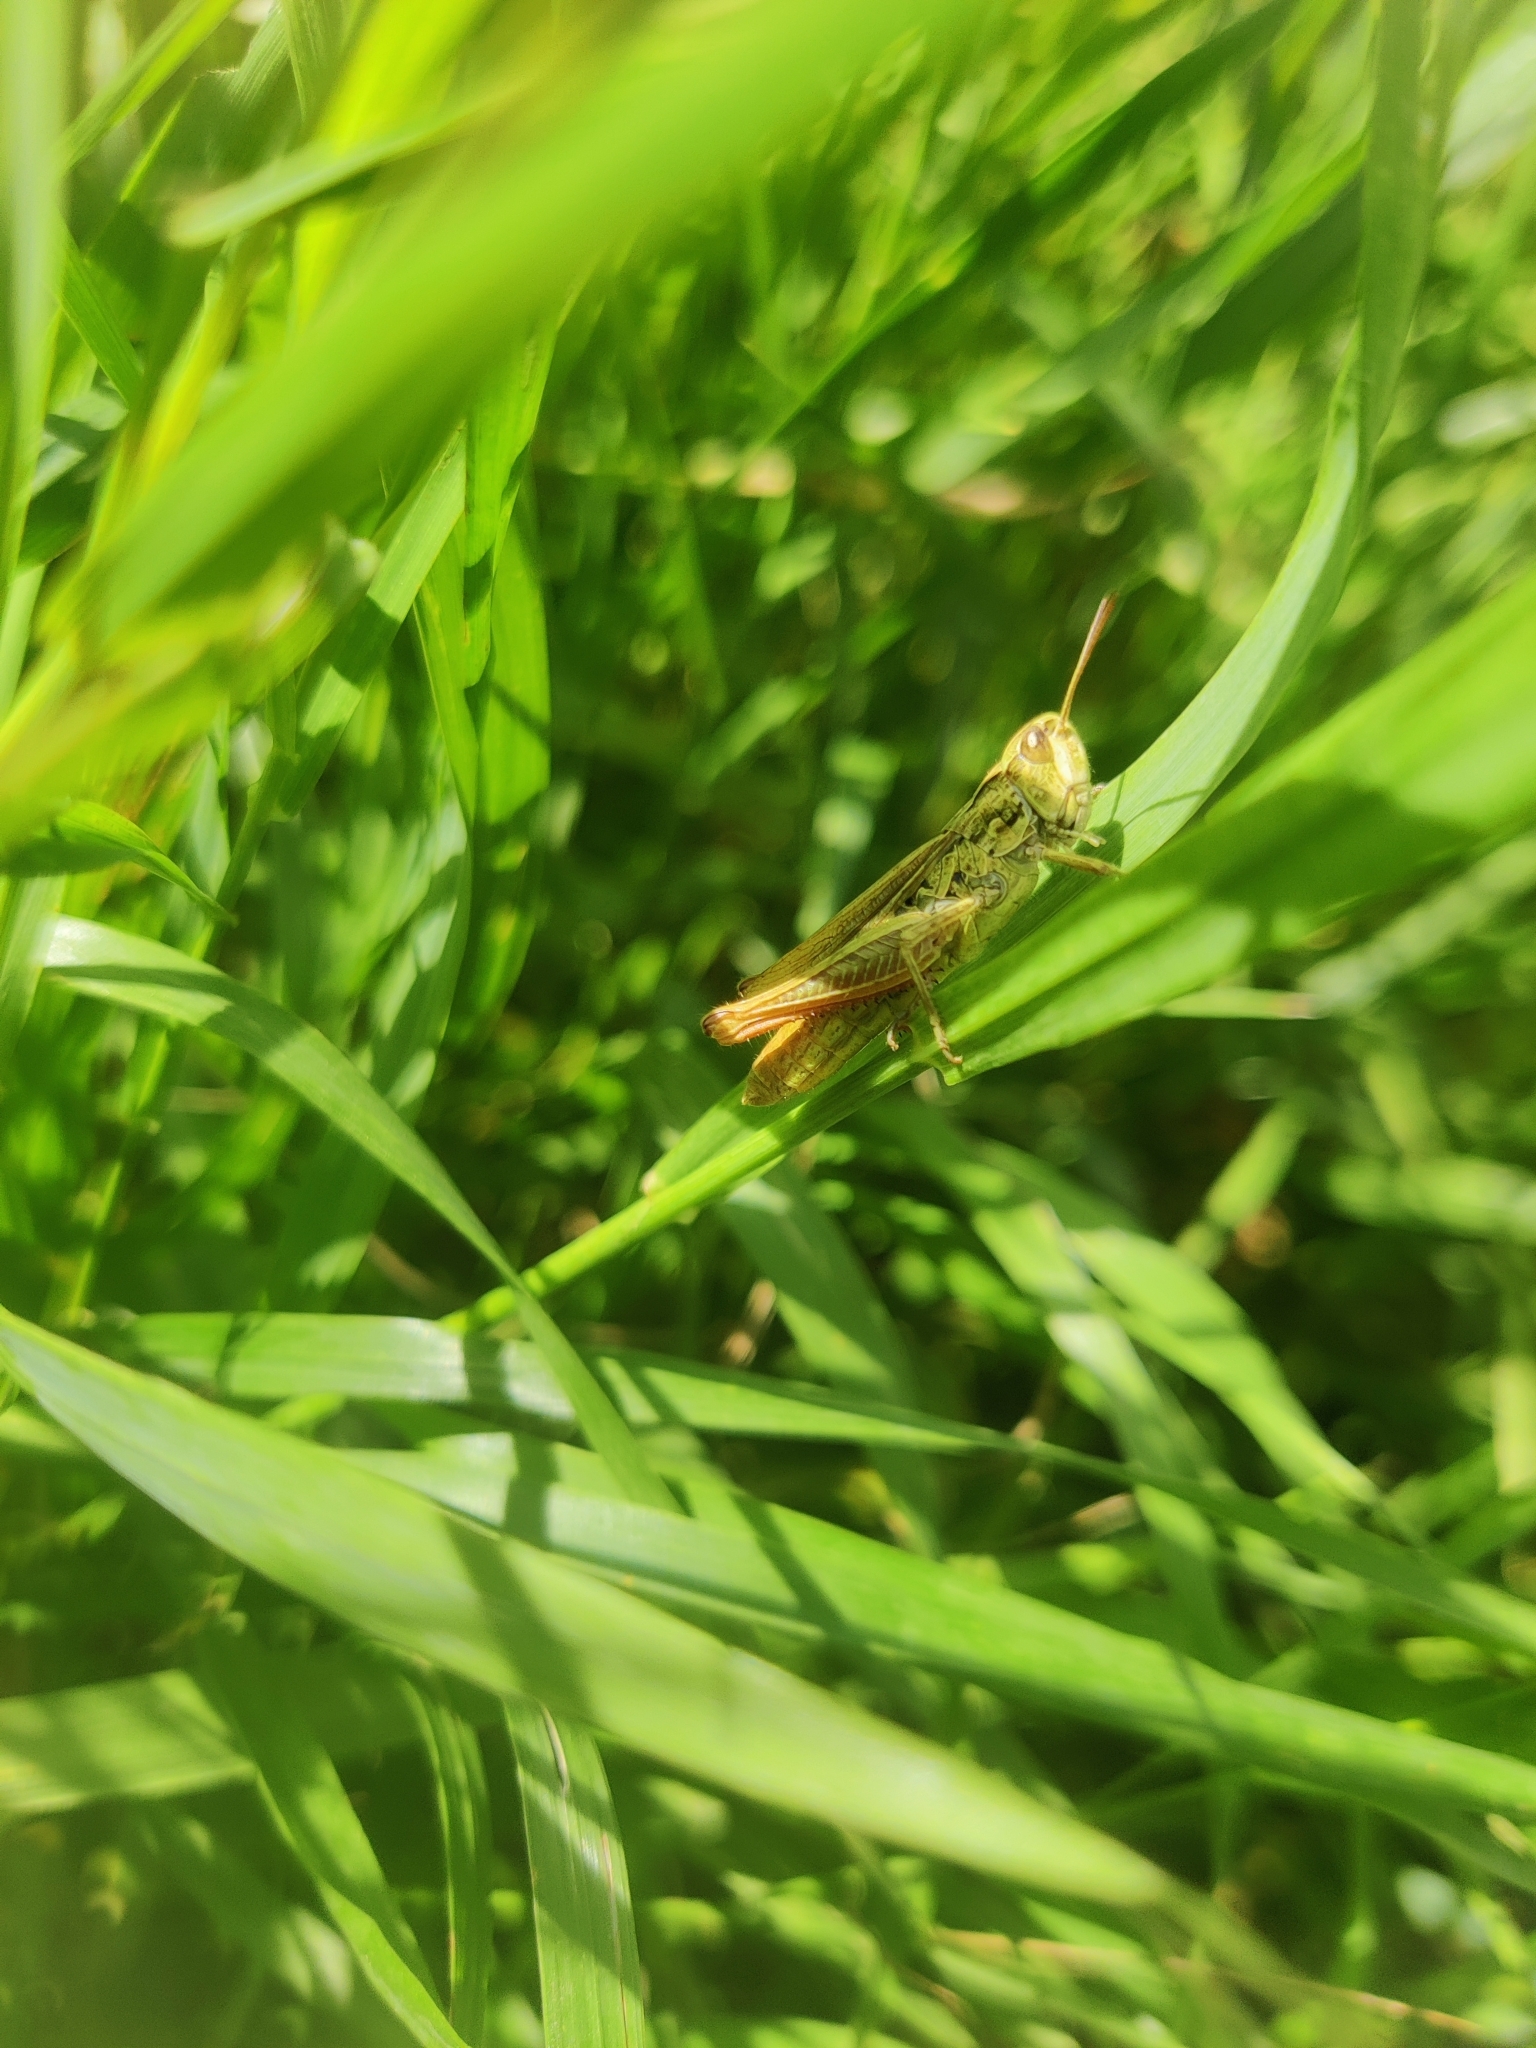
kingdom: Animalia
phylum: Arthropoda
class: Insecta
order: Orthoptera
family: Acrididae
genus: Chorthippus
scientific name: Chorthippus apricarius
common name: Upland field grasshopper
